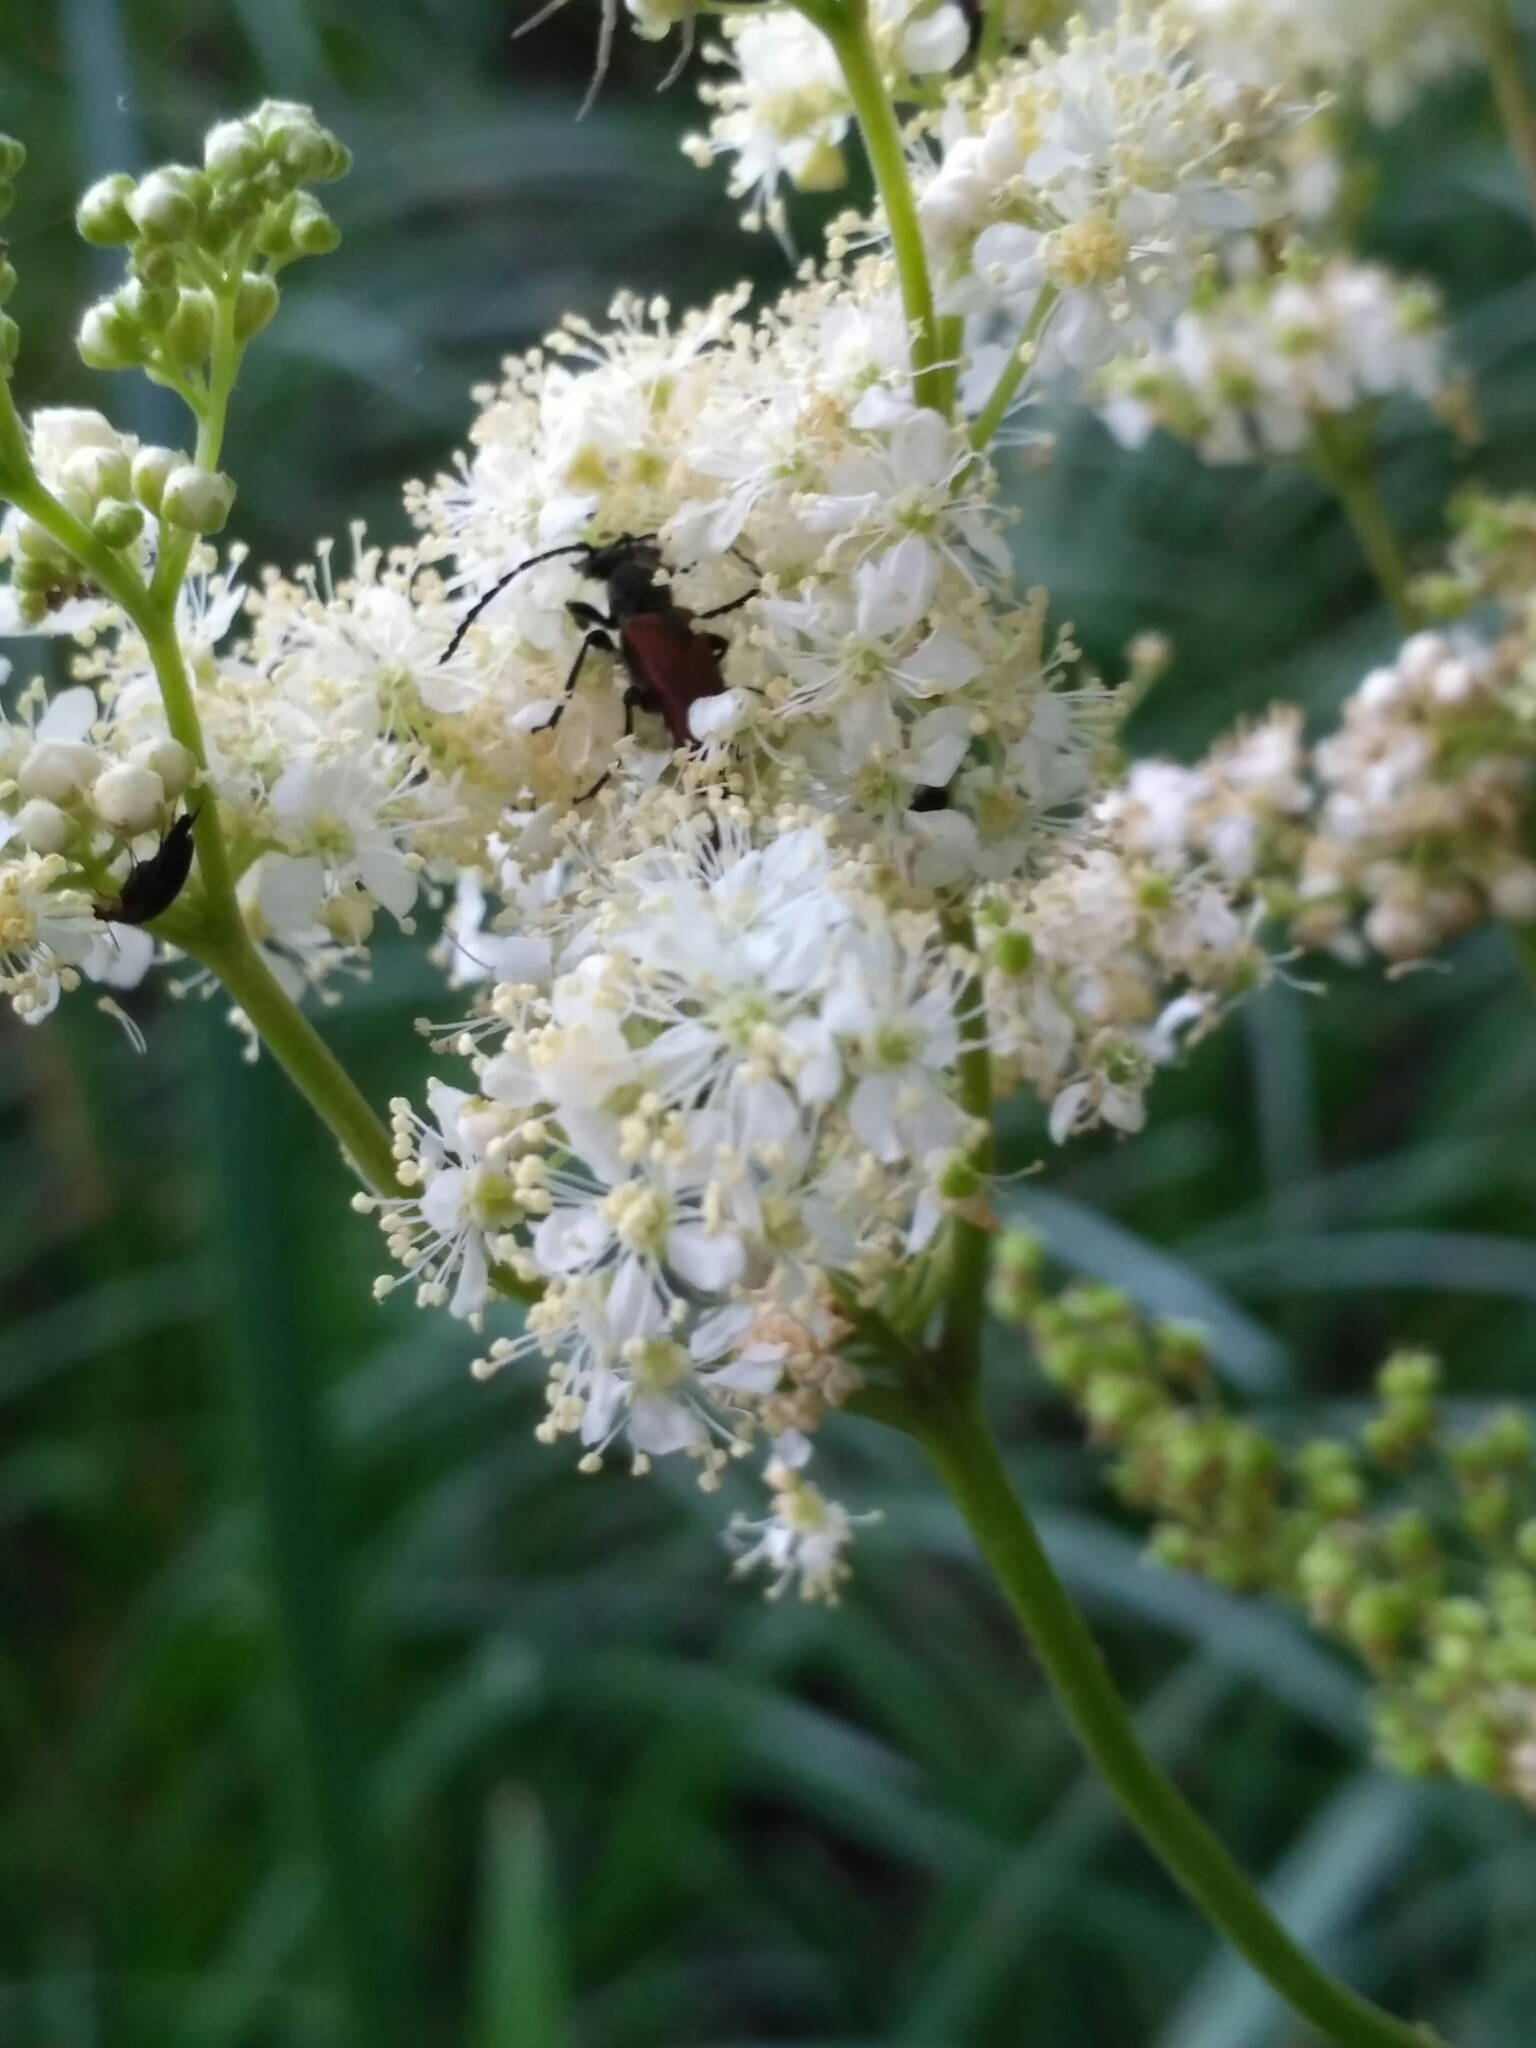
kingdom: Animalia
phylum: Arthropoda
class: Insecta
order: Coleoptera
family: Cerambycidae
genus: Paracorymbia
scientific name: Paracorymbia maculicornis
